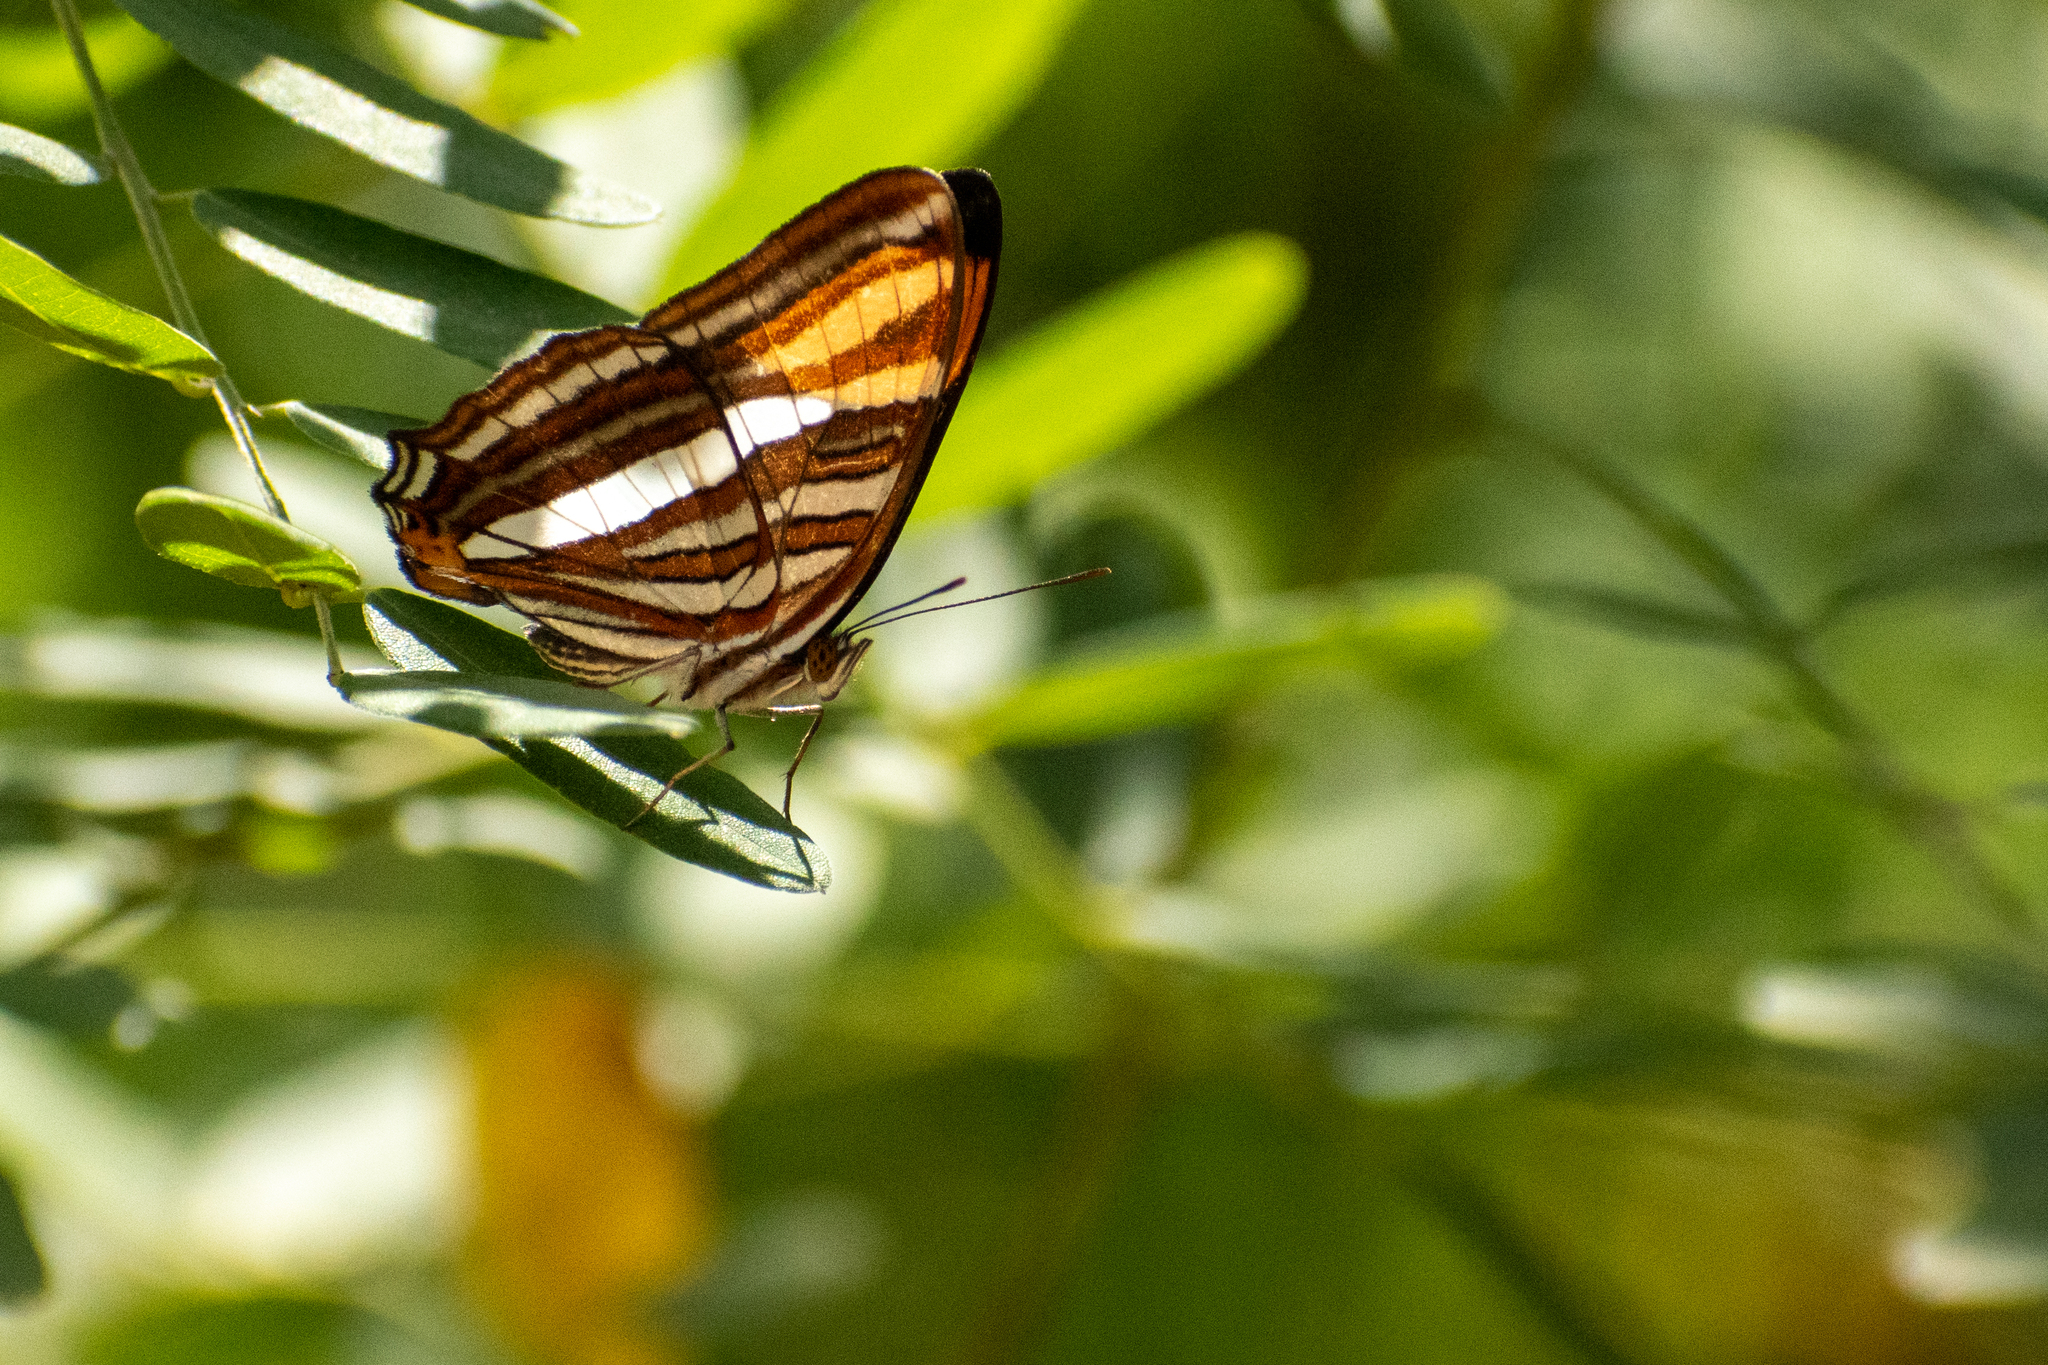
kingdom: Animalia
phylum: Arthropoda
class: Insecta
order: Lepidoptera
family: Nymphalidae
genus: Limenitis
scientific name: Limenitis syma
